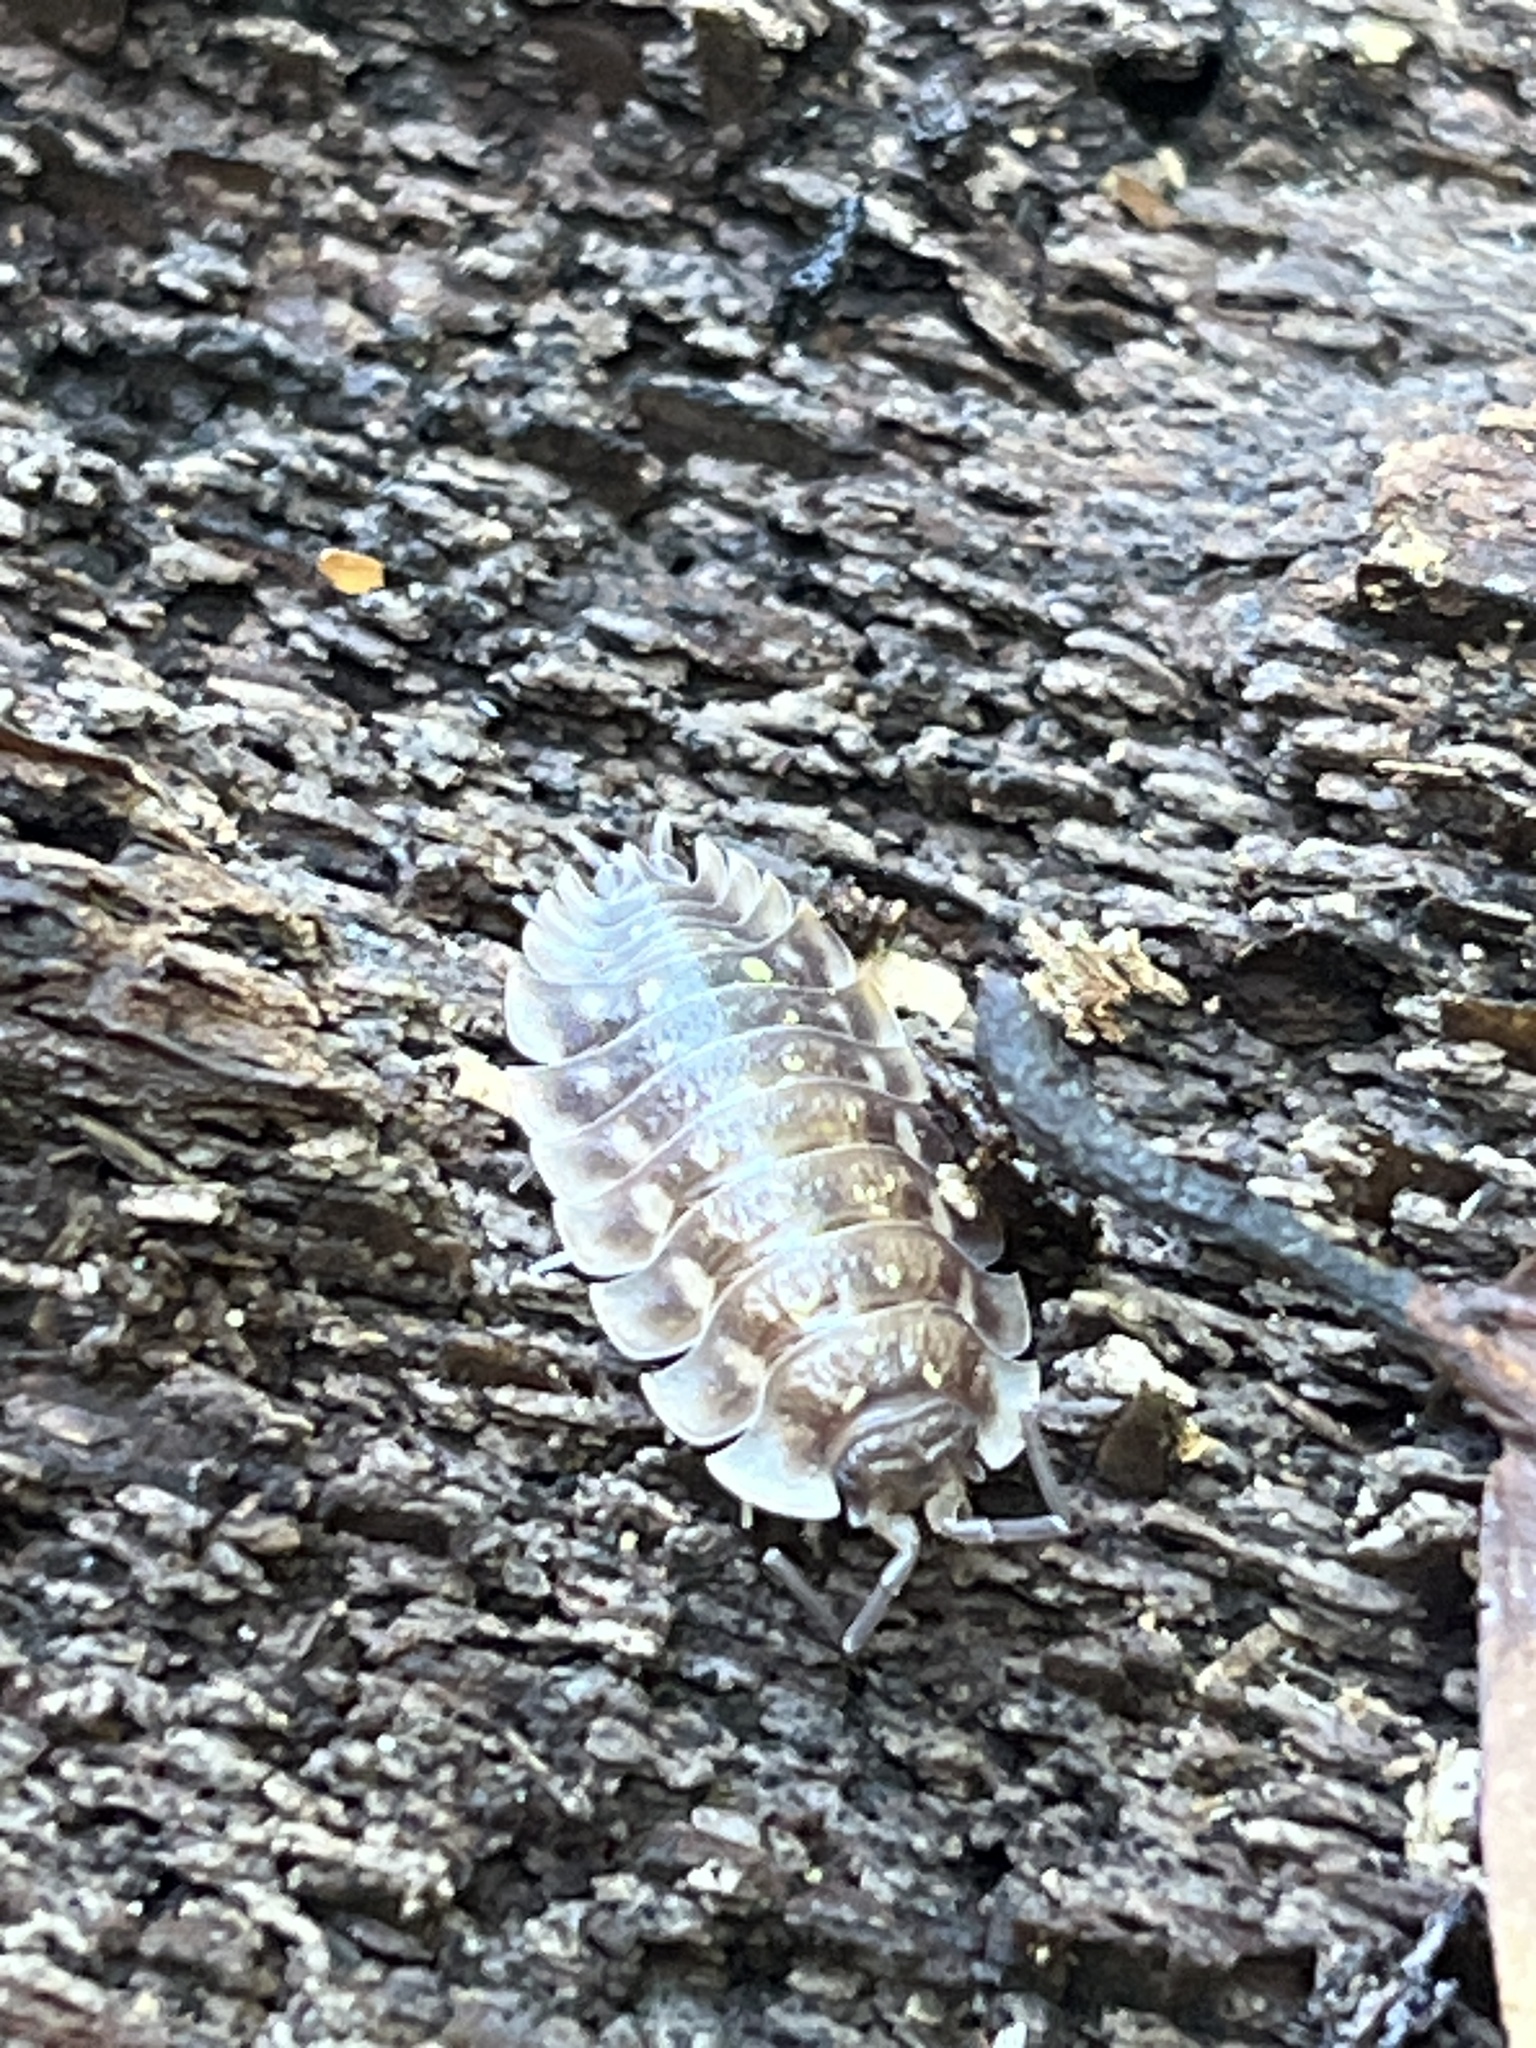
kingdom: Animalia
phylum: Arthropoda
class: Malacostraca
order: Isopoda
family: Oniscidae
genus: Oniscus
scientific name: Oniscus asellus
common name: Common shiny woodlouse
